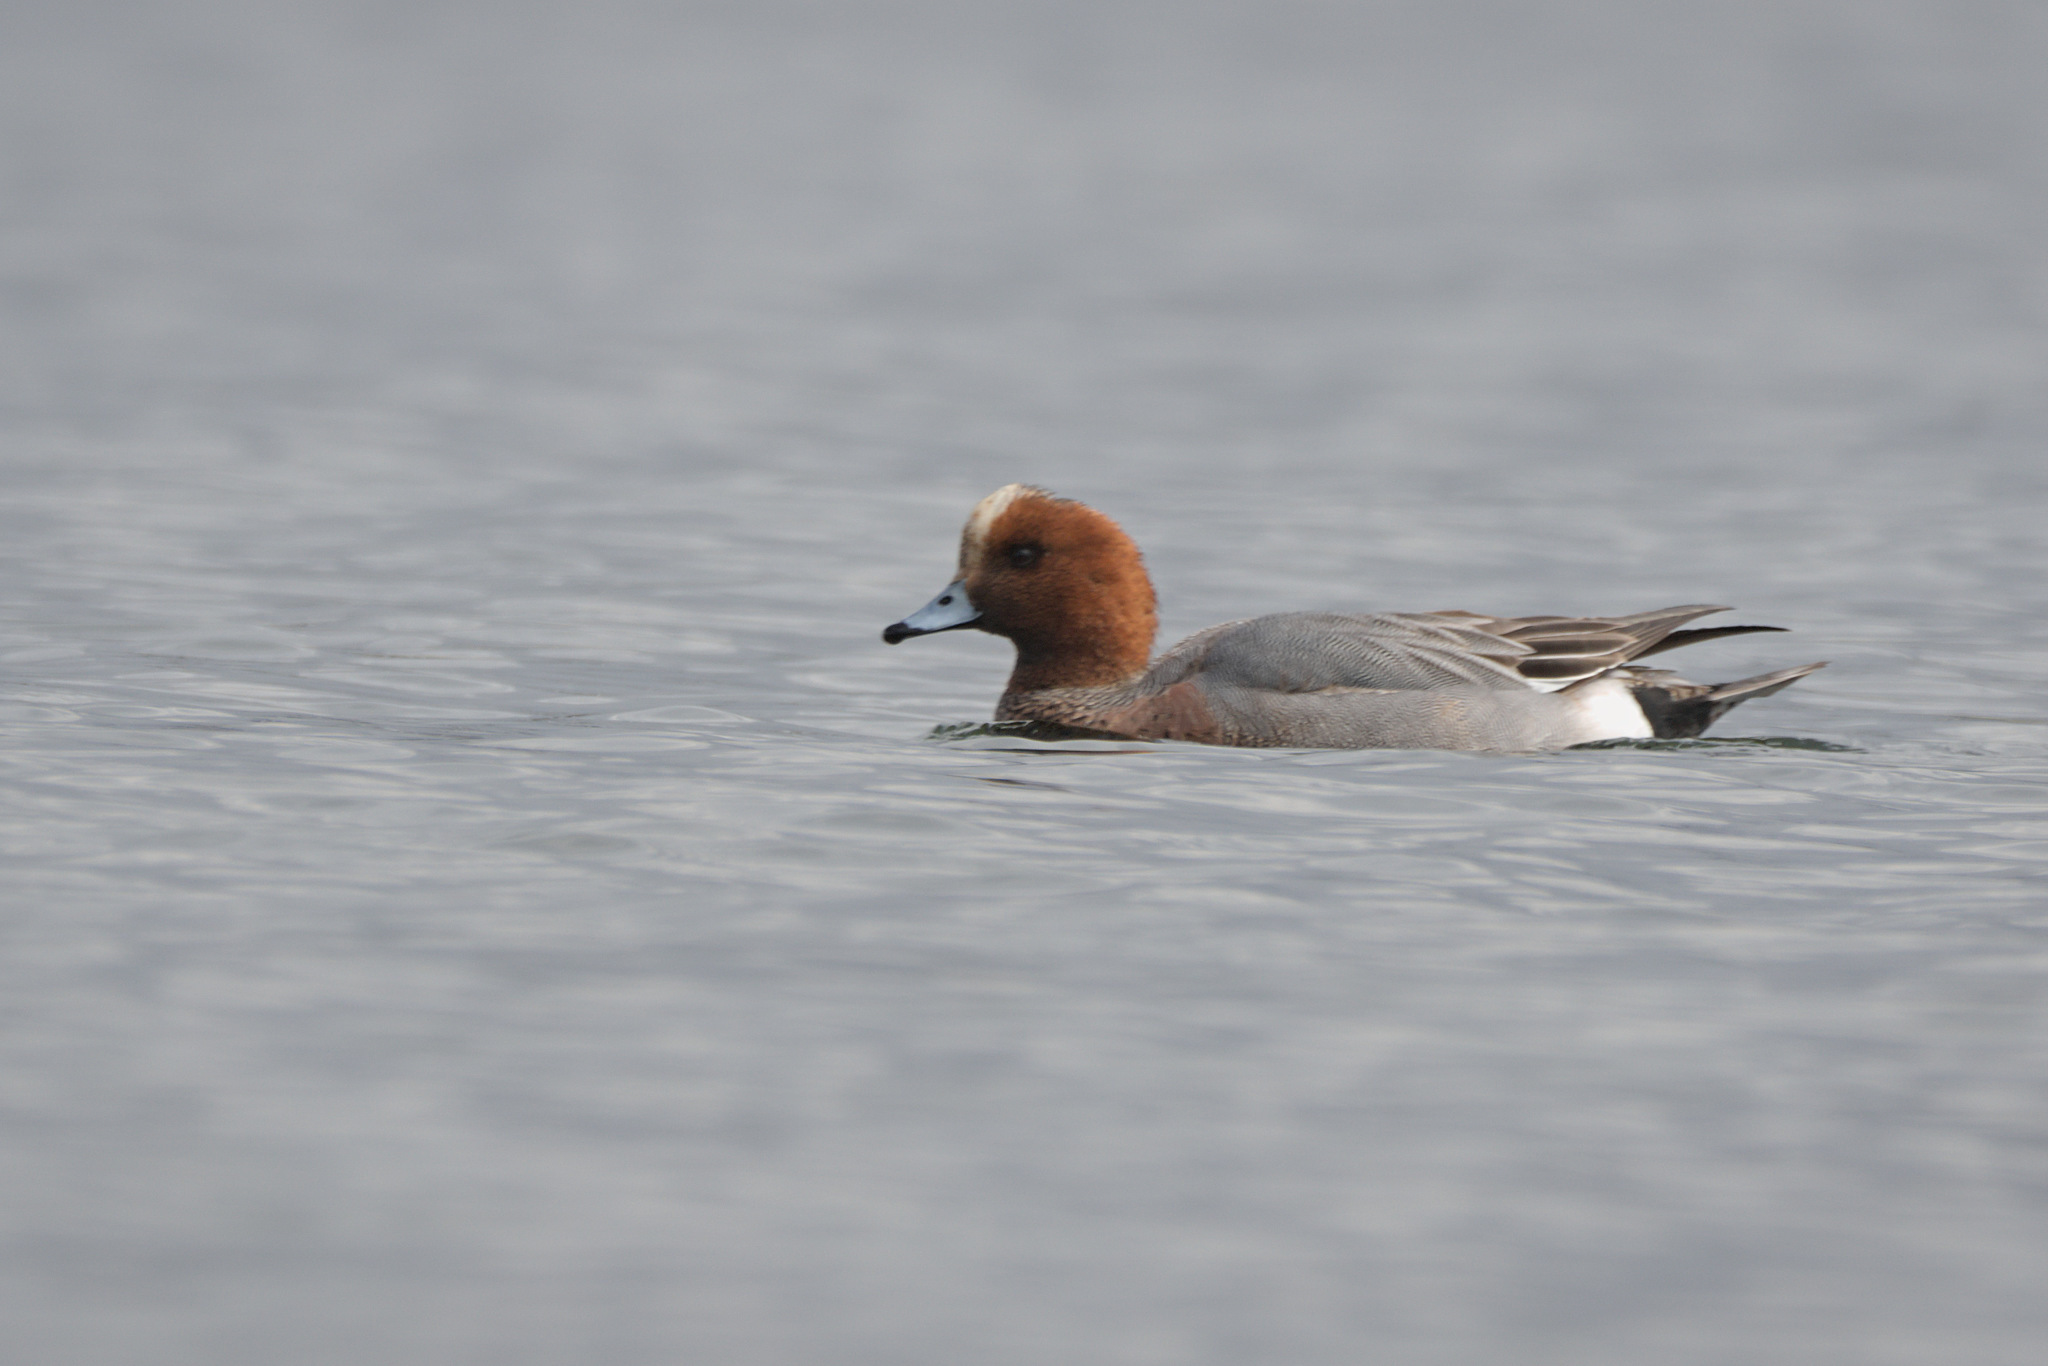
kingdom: Animalia
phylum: Chordata
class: Aves
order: Anseriformes
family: Anatidae
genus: Mareca
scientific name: Mareca penelope
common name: Eurasian wigeon
